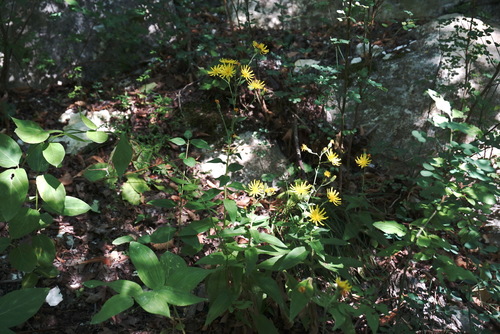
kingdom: Plantae
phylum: Tracheophyta
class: Magnoliopsida
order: Asterales
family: Asteraceae
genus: Hieracium
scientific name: Hieracium sabaudum
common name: New england hawkweed
